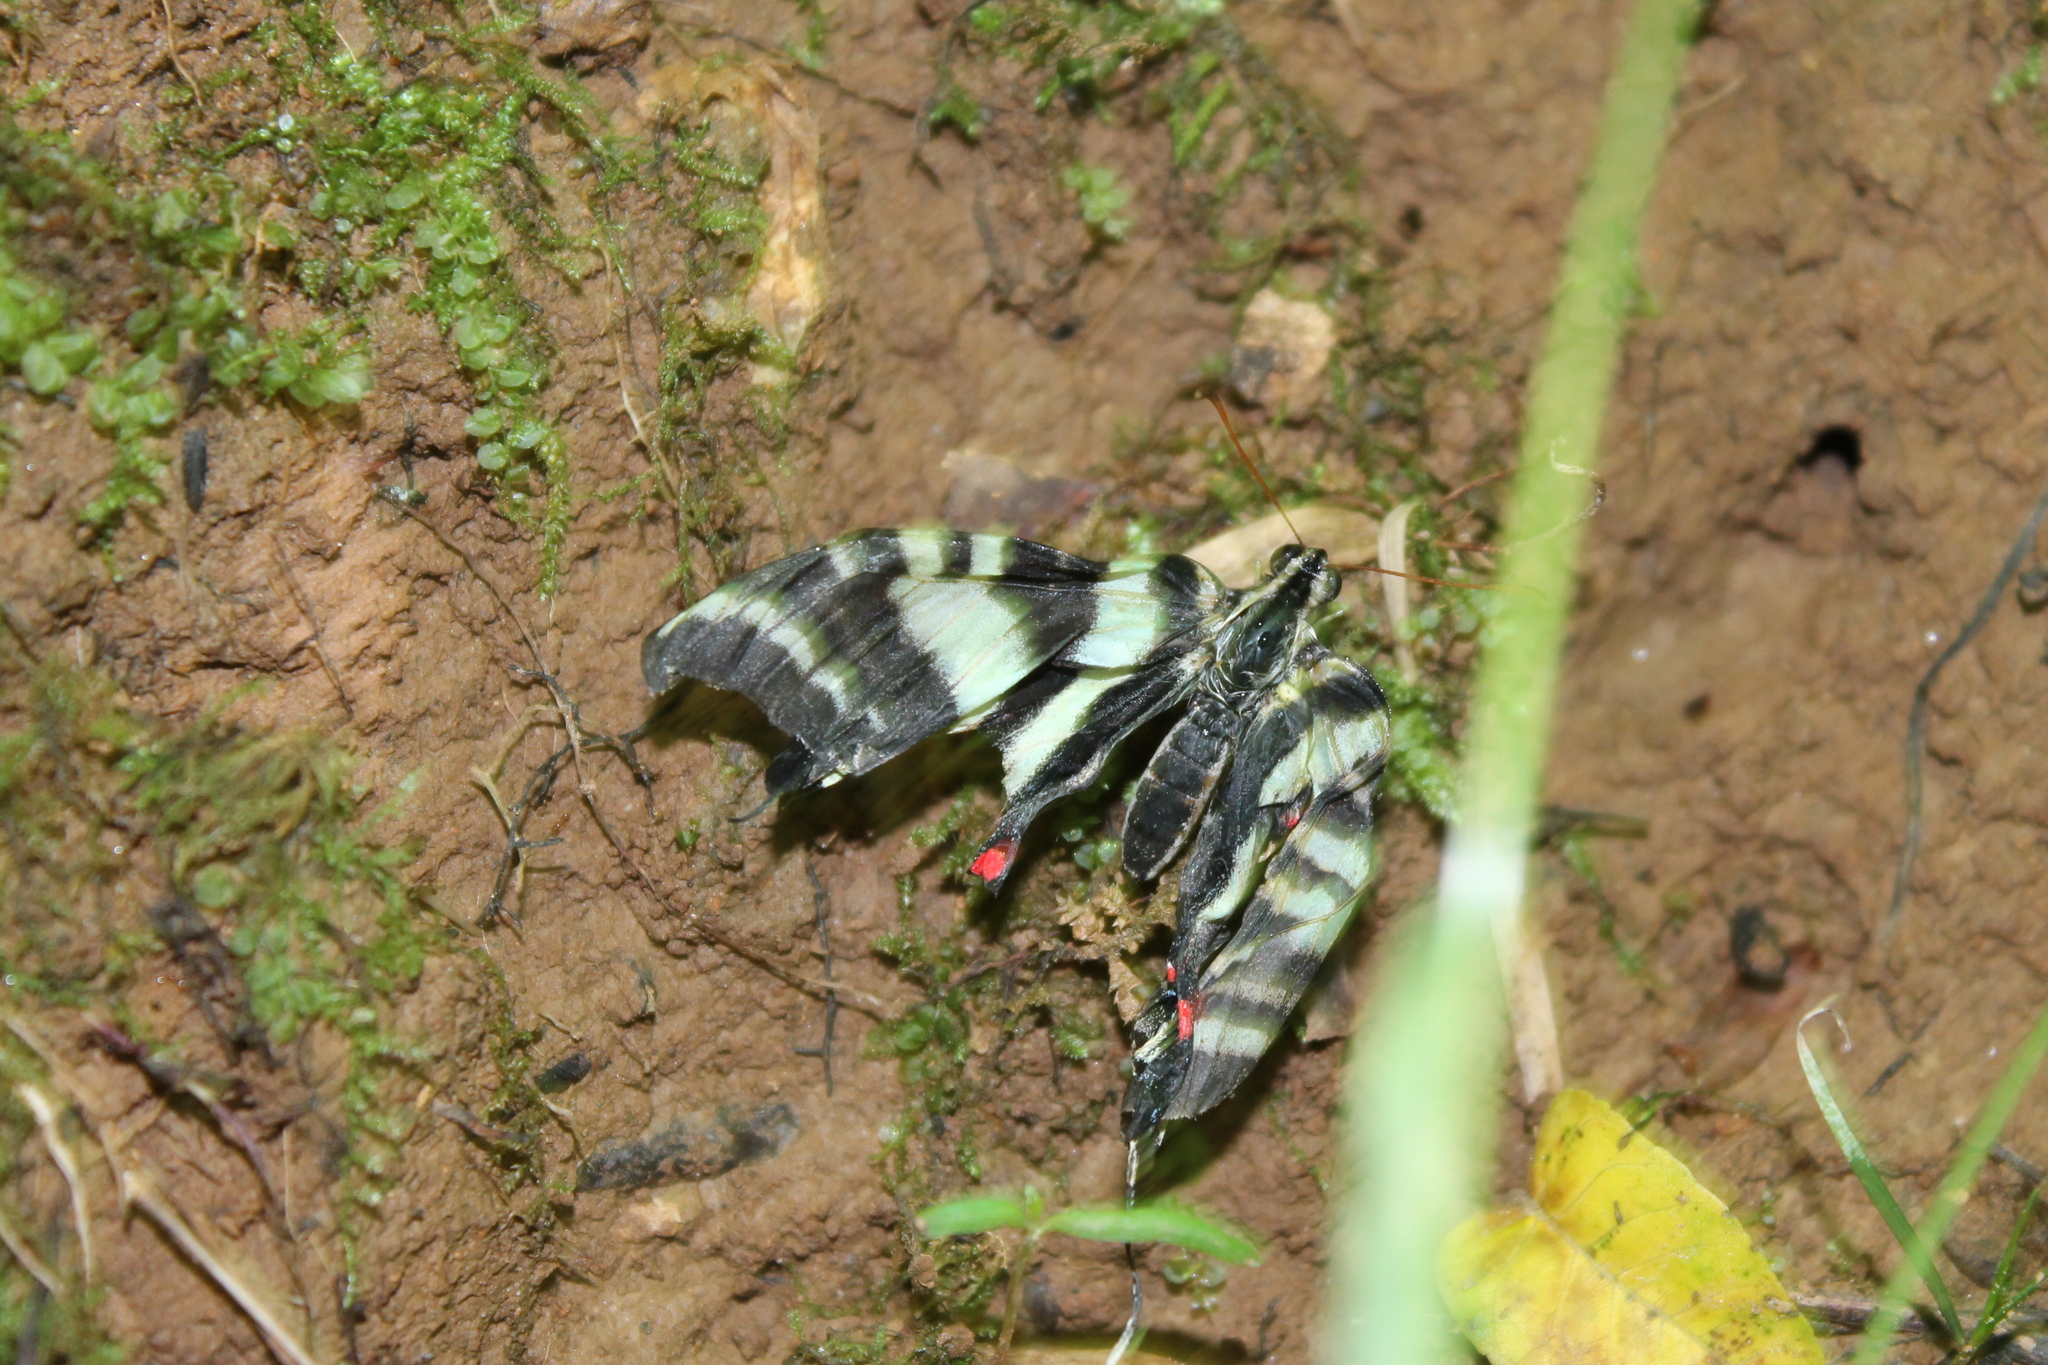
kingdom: Animalia
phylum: Arthropoda
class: Insecta
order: Lepidoptera
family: Papilionidae
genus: Protographium
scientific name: Protographium marcellus
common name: Zebra swallowtail
